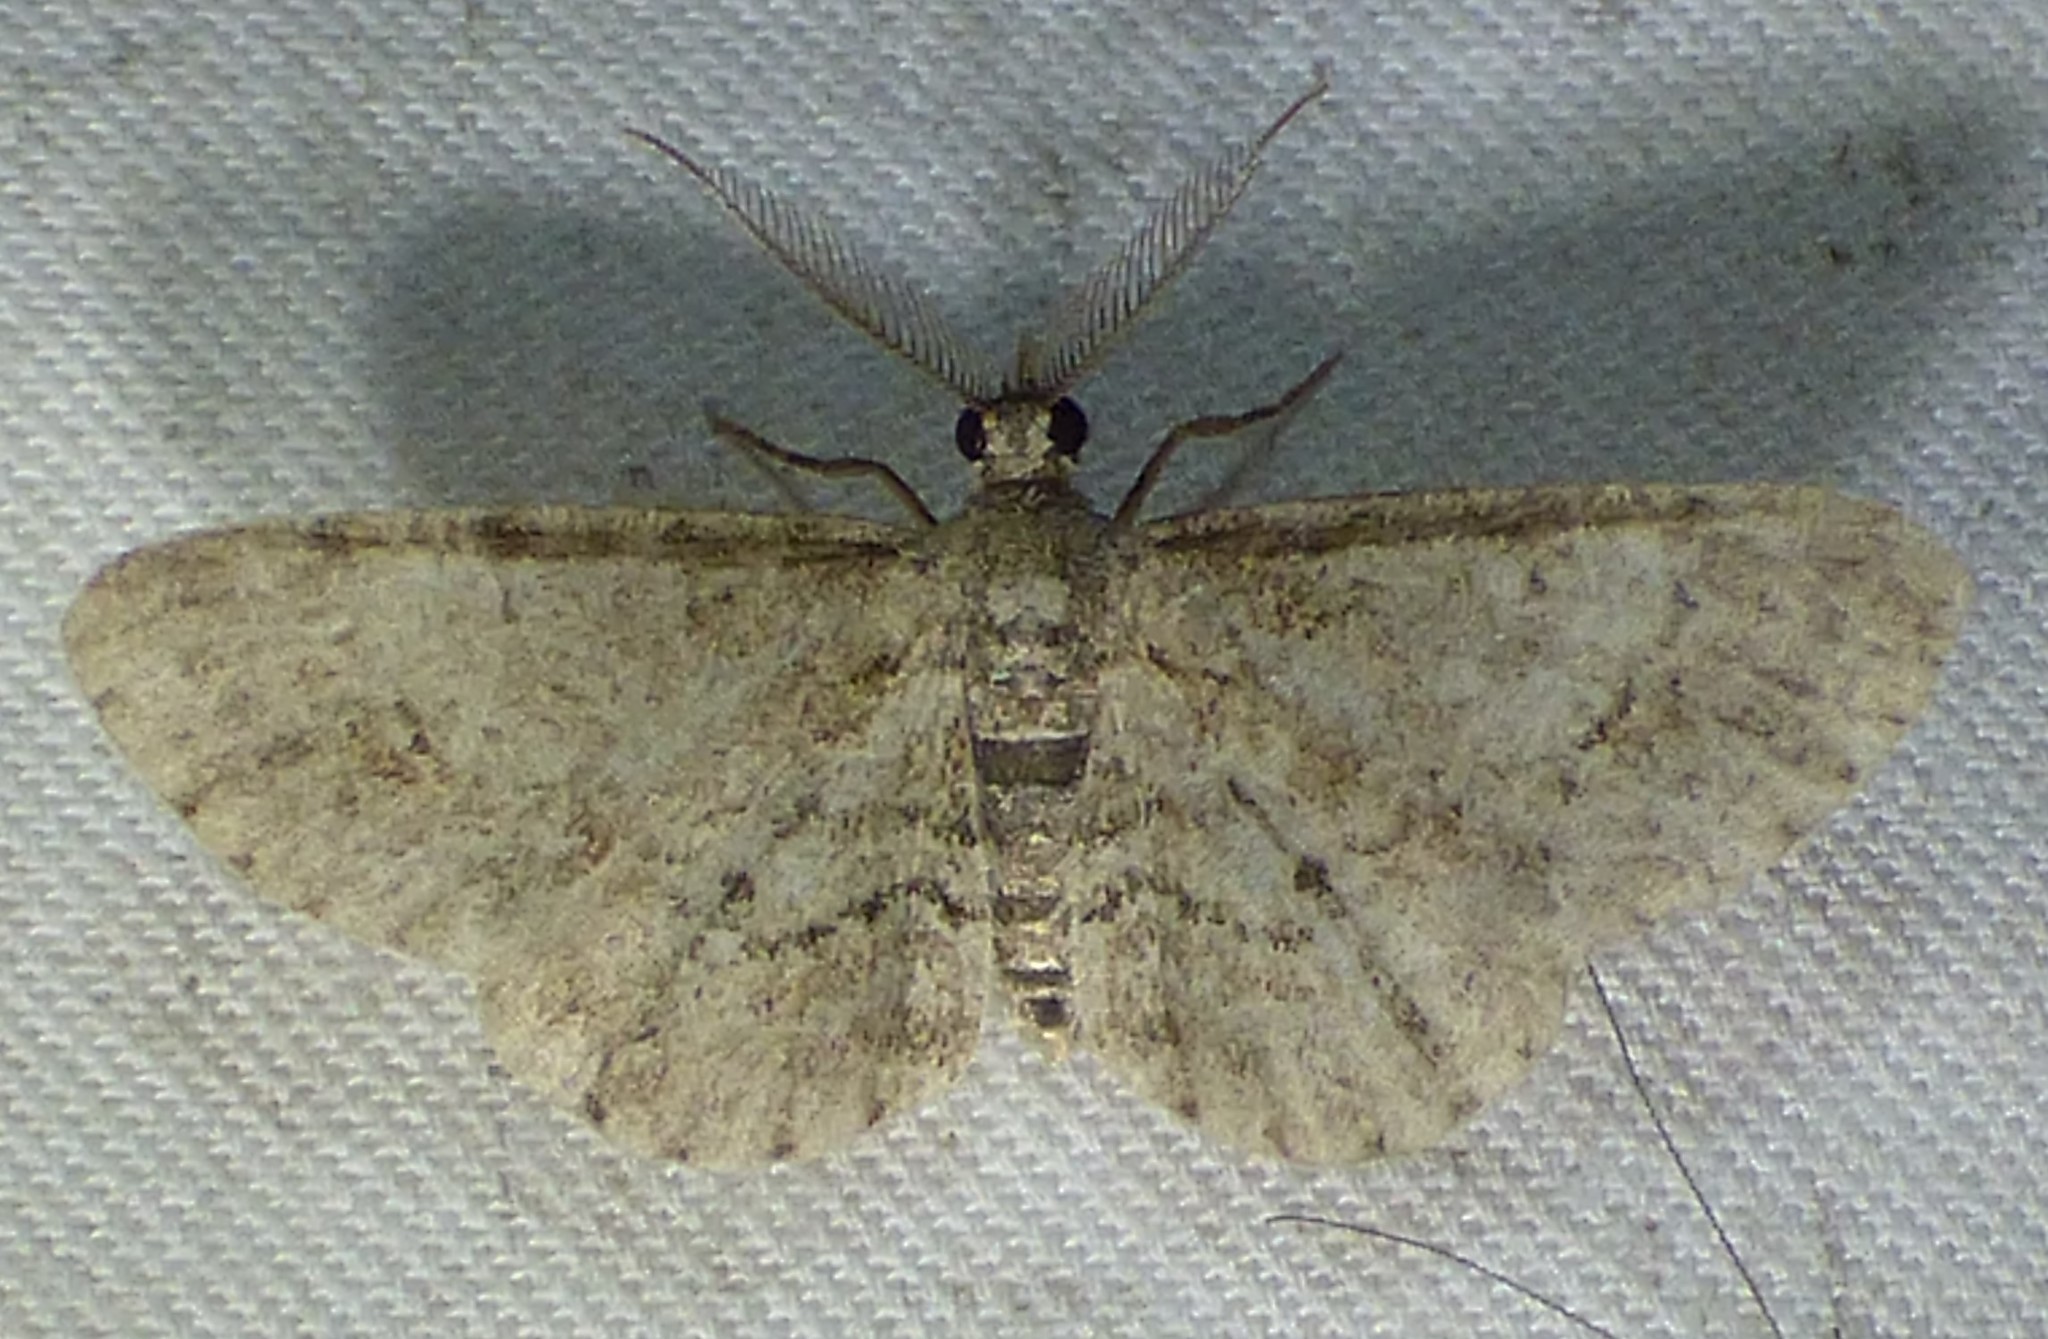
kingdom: Animalia
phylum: Arthropoda
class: Insecta
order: Lepidoptera
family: Geometridae
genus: Glenoides
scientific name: Glenoides texanaria
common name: Texas gray
